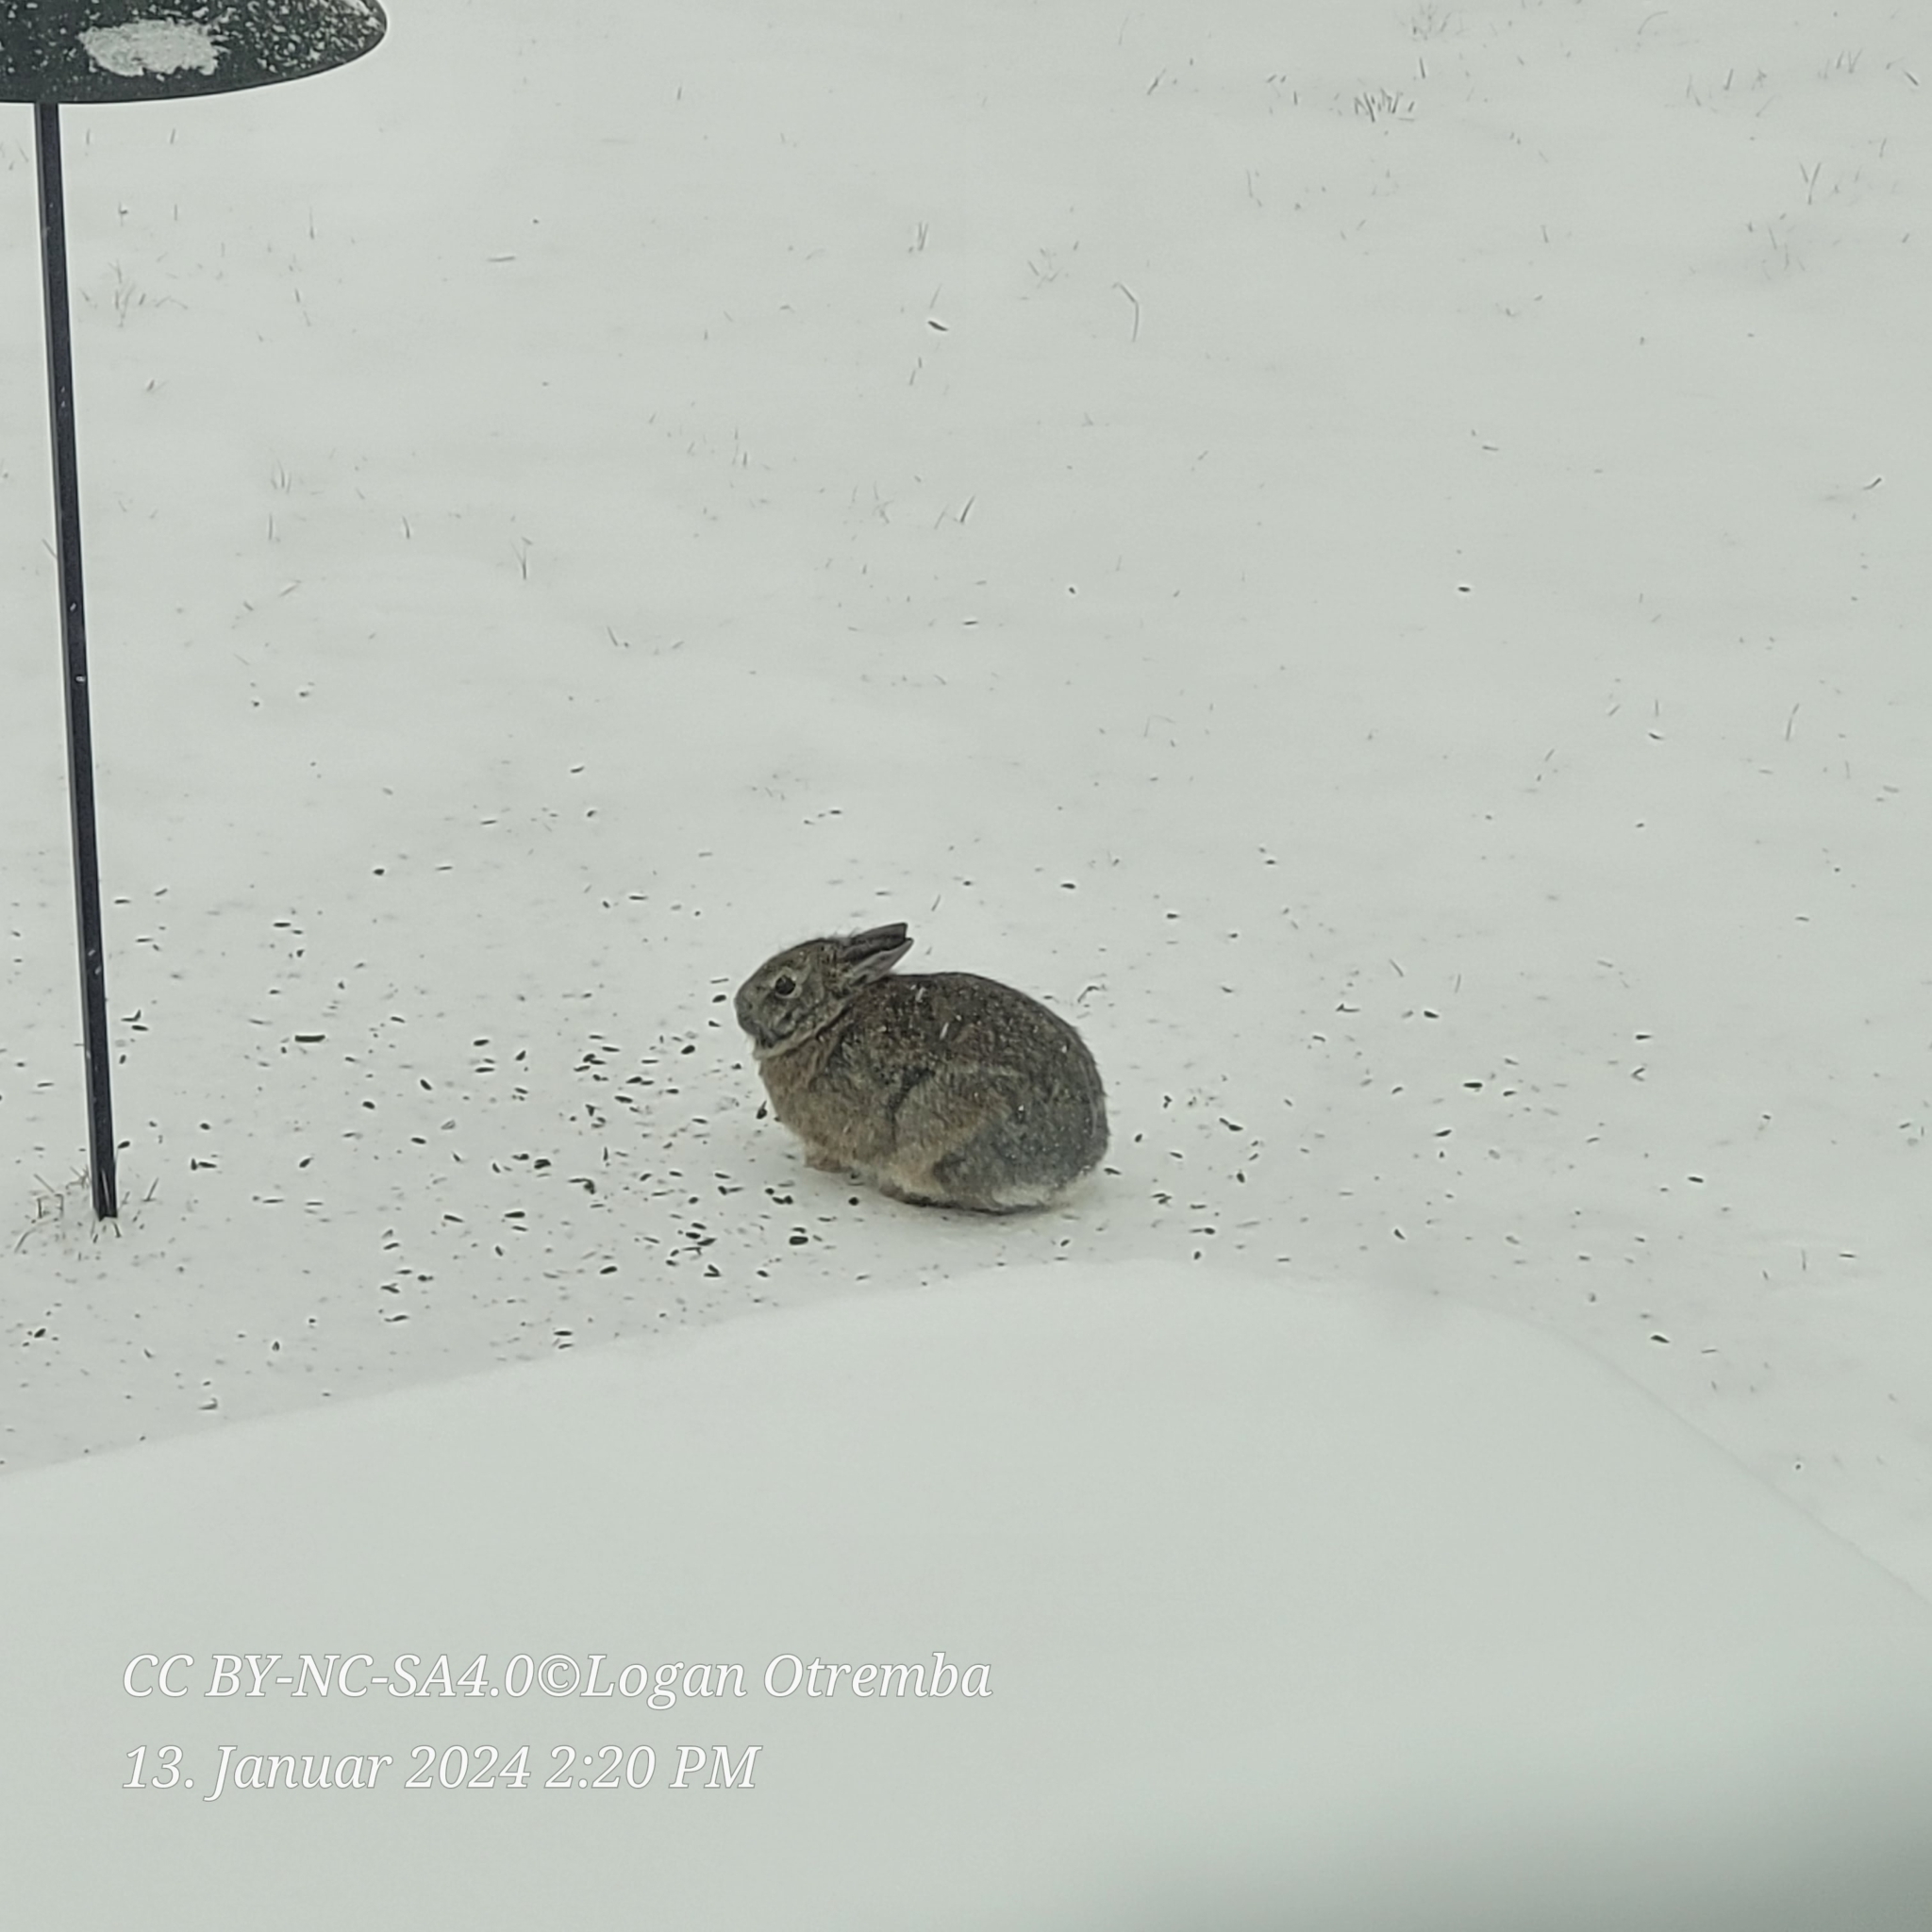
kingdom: Animalia
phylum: Chordata
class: Mammalia
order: Lagomorpha
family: Leporidae
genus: Sylvilagus
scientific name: Sylvilagus floridanus
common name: Eastern cottontail
